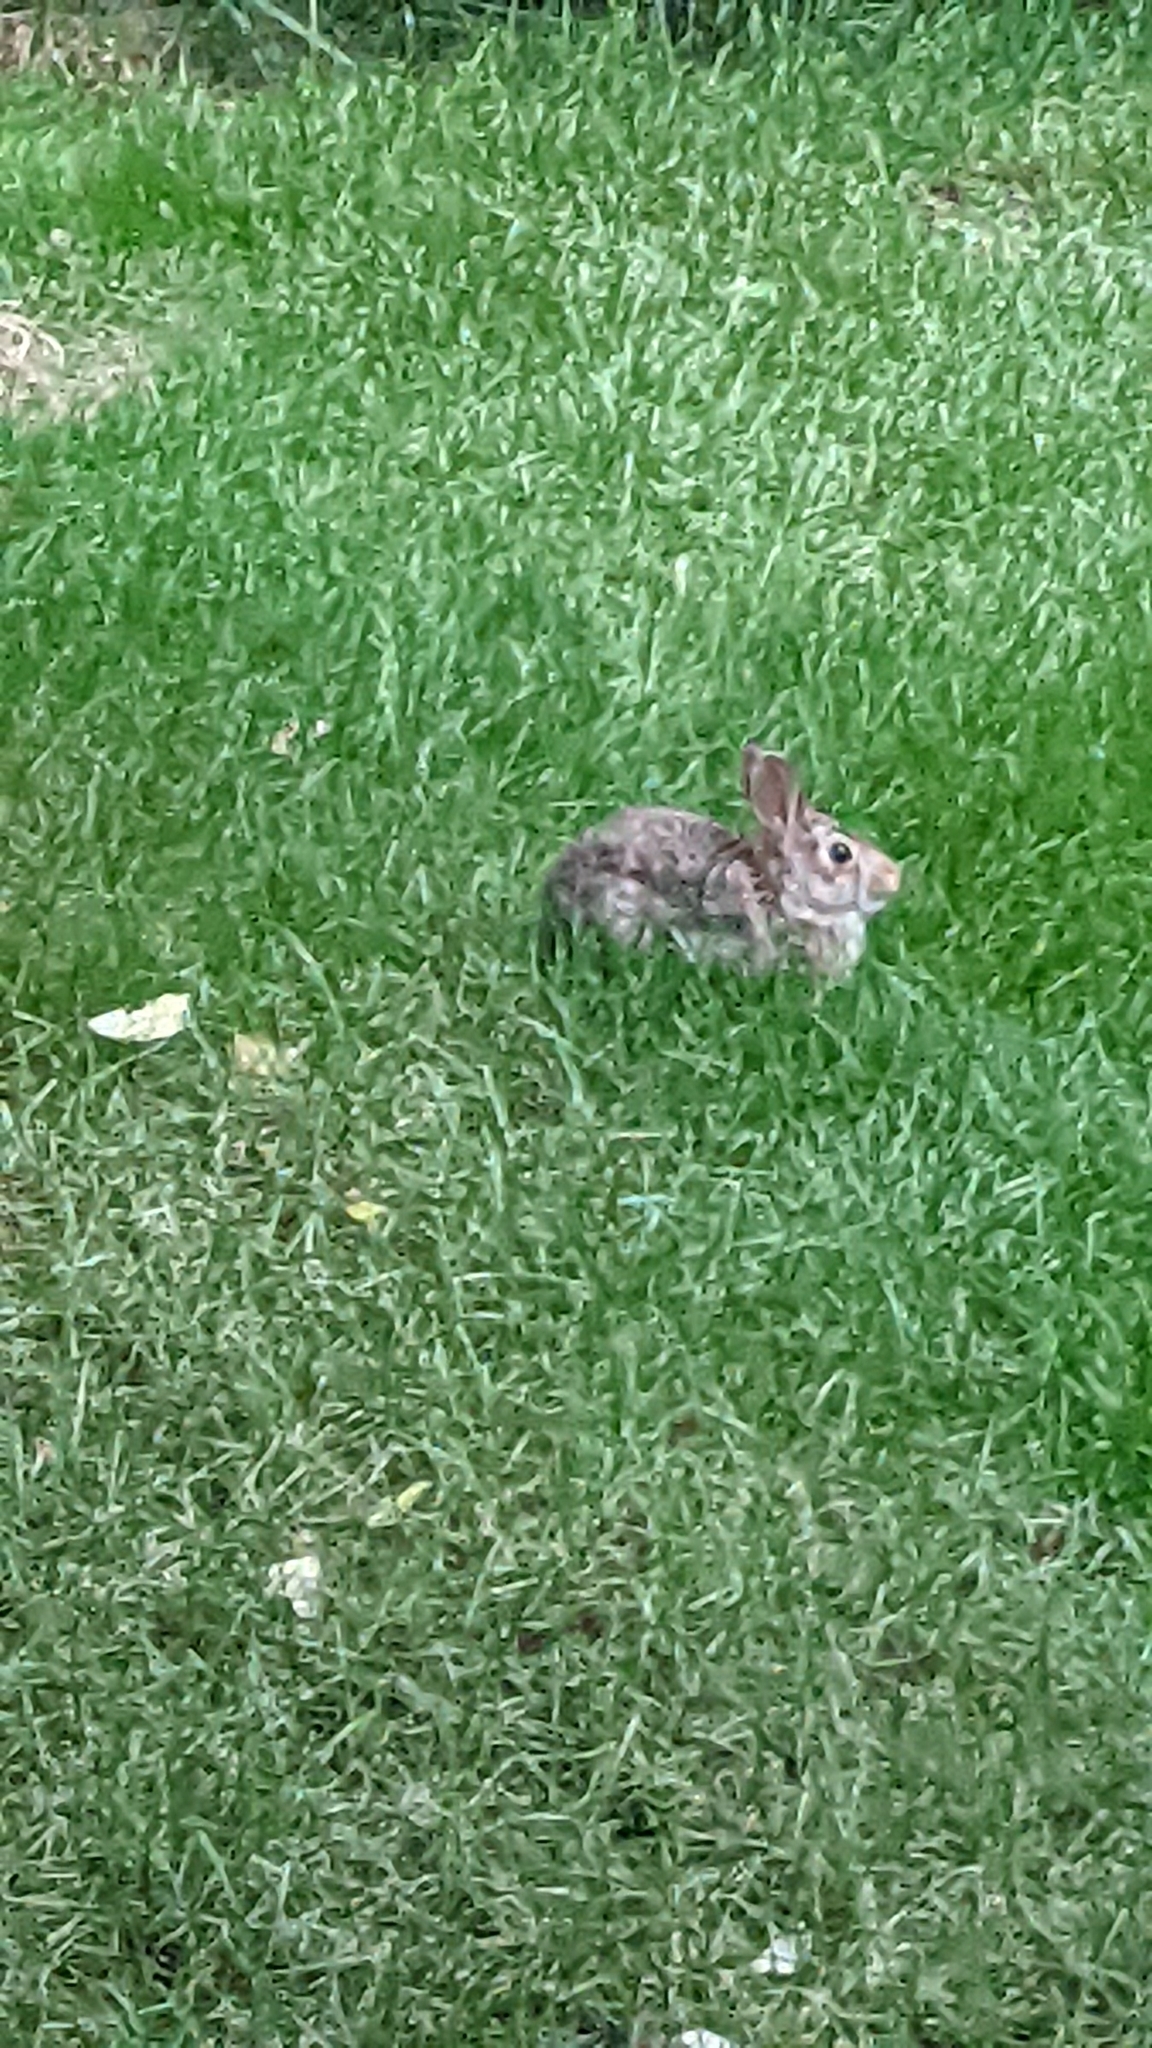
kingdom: Animalia
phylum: Chordata
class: Mammalia
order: Lagomorpha
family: Leporidae
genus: Sylvilagus
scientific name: Sylvilagus floridanus
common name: Eastern cottontail
